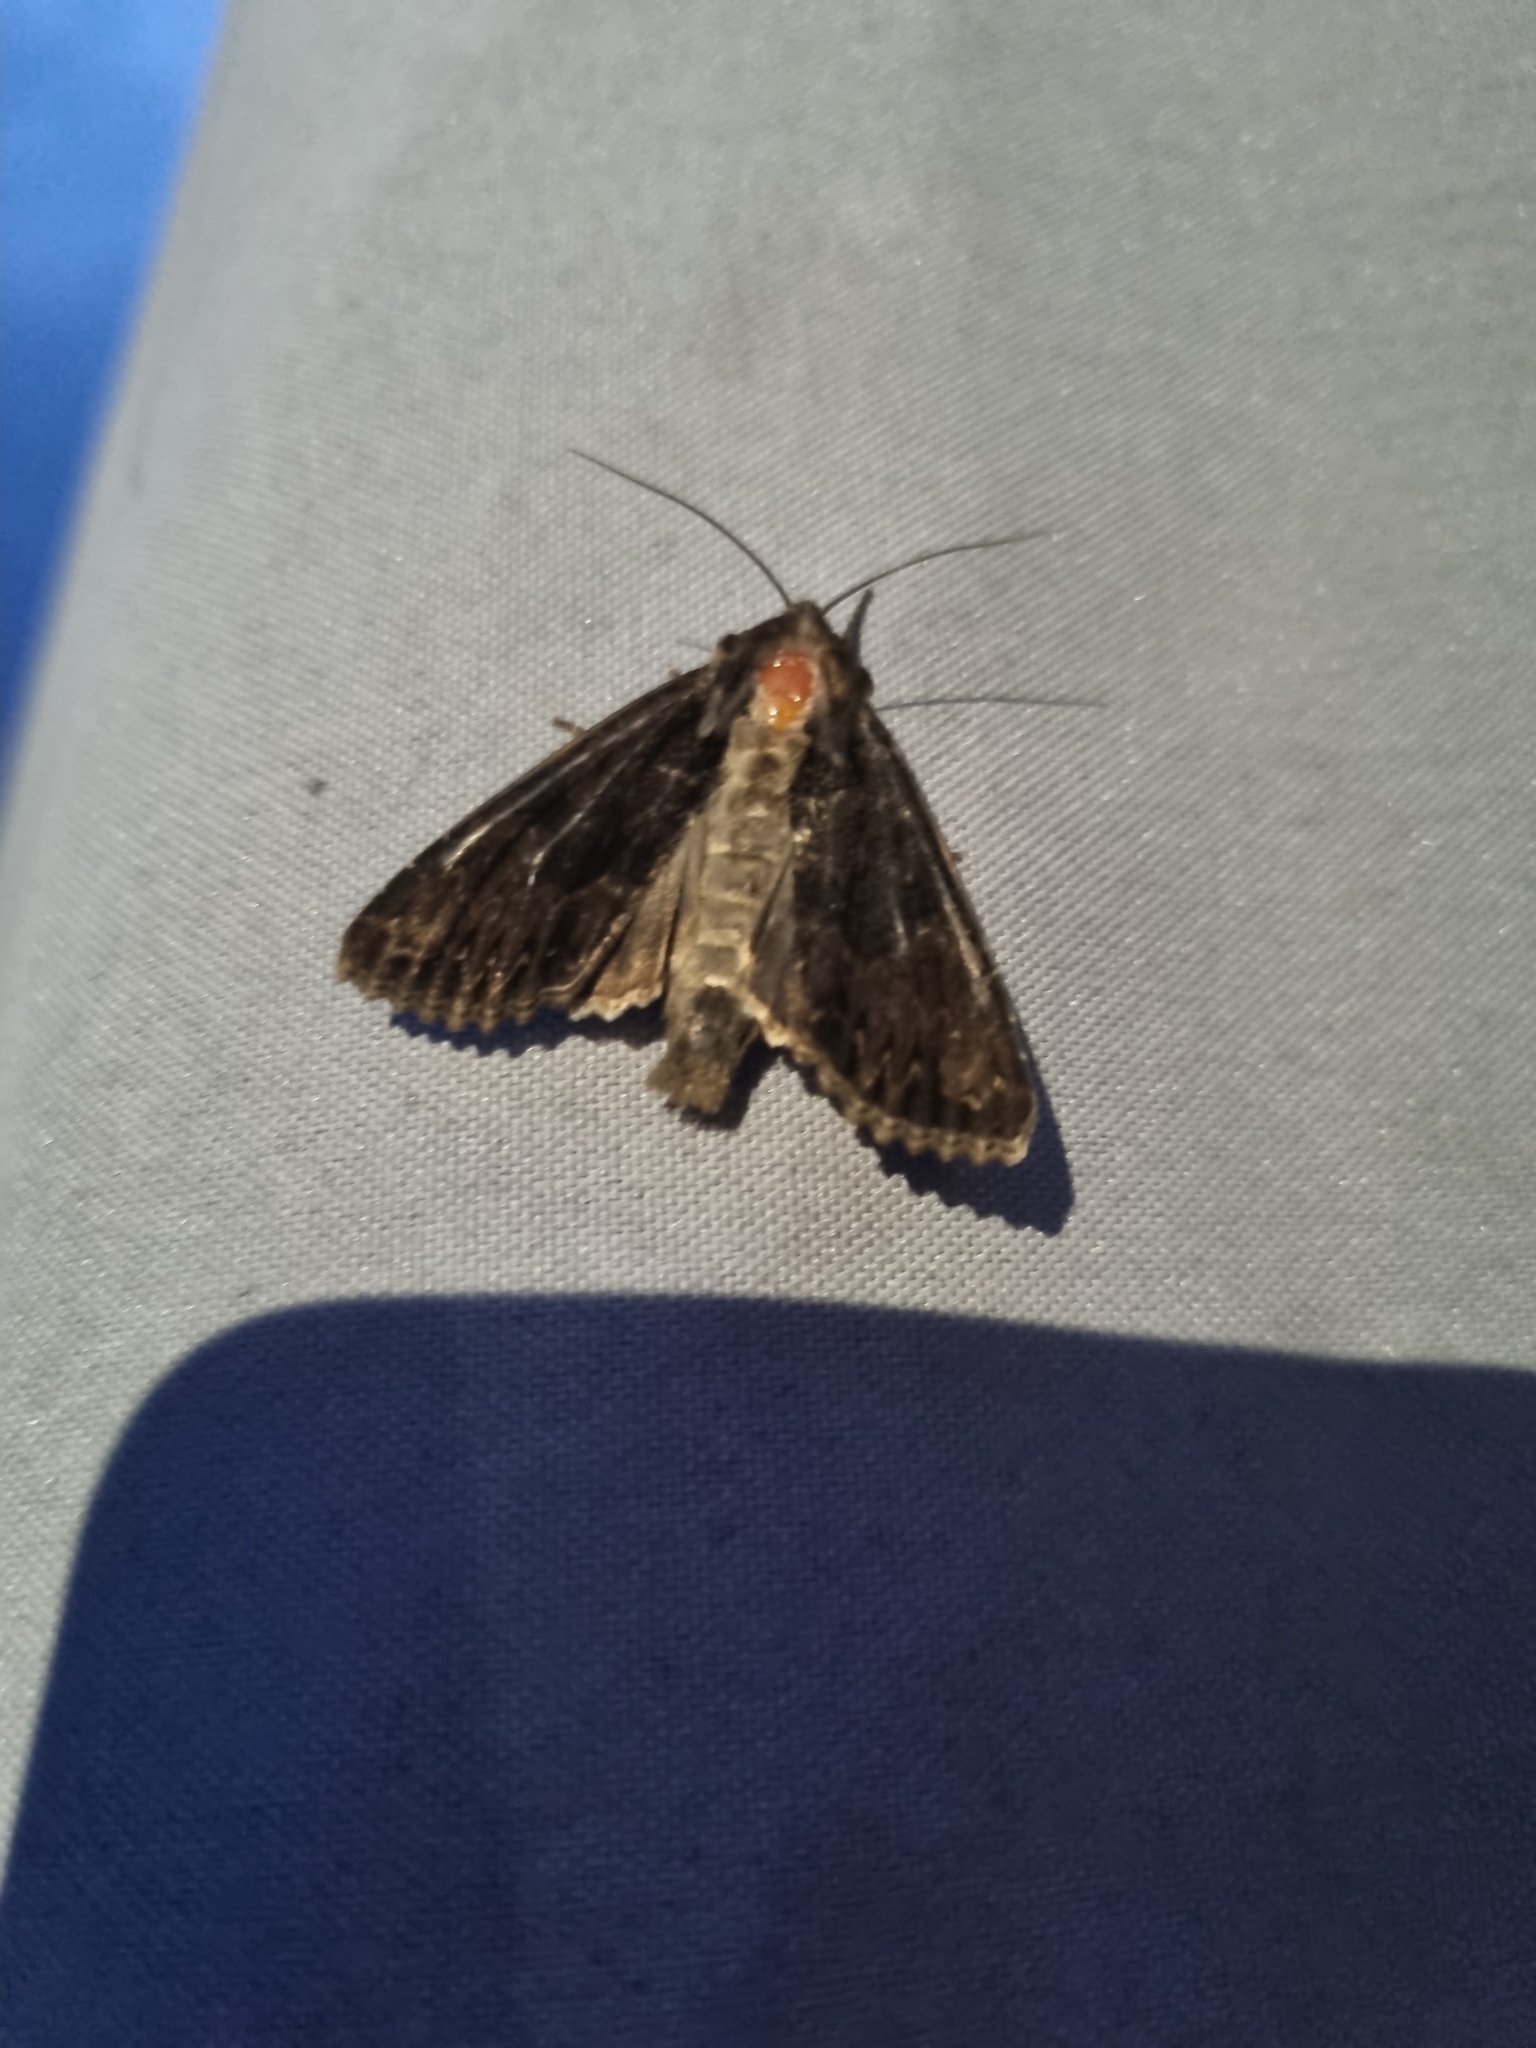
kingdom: Animalia
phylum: Arthropoda
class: Insecta
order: Lepidoptera
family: Noctuidae
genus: Apamea
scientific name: Apamea monoglypha
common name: Dark arches
